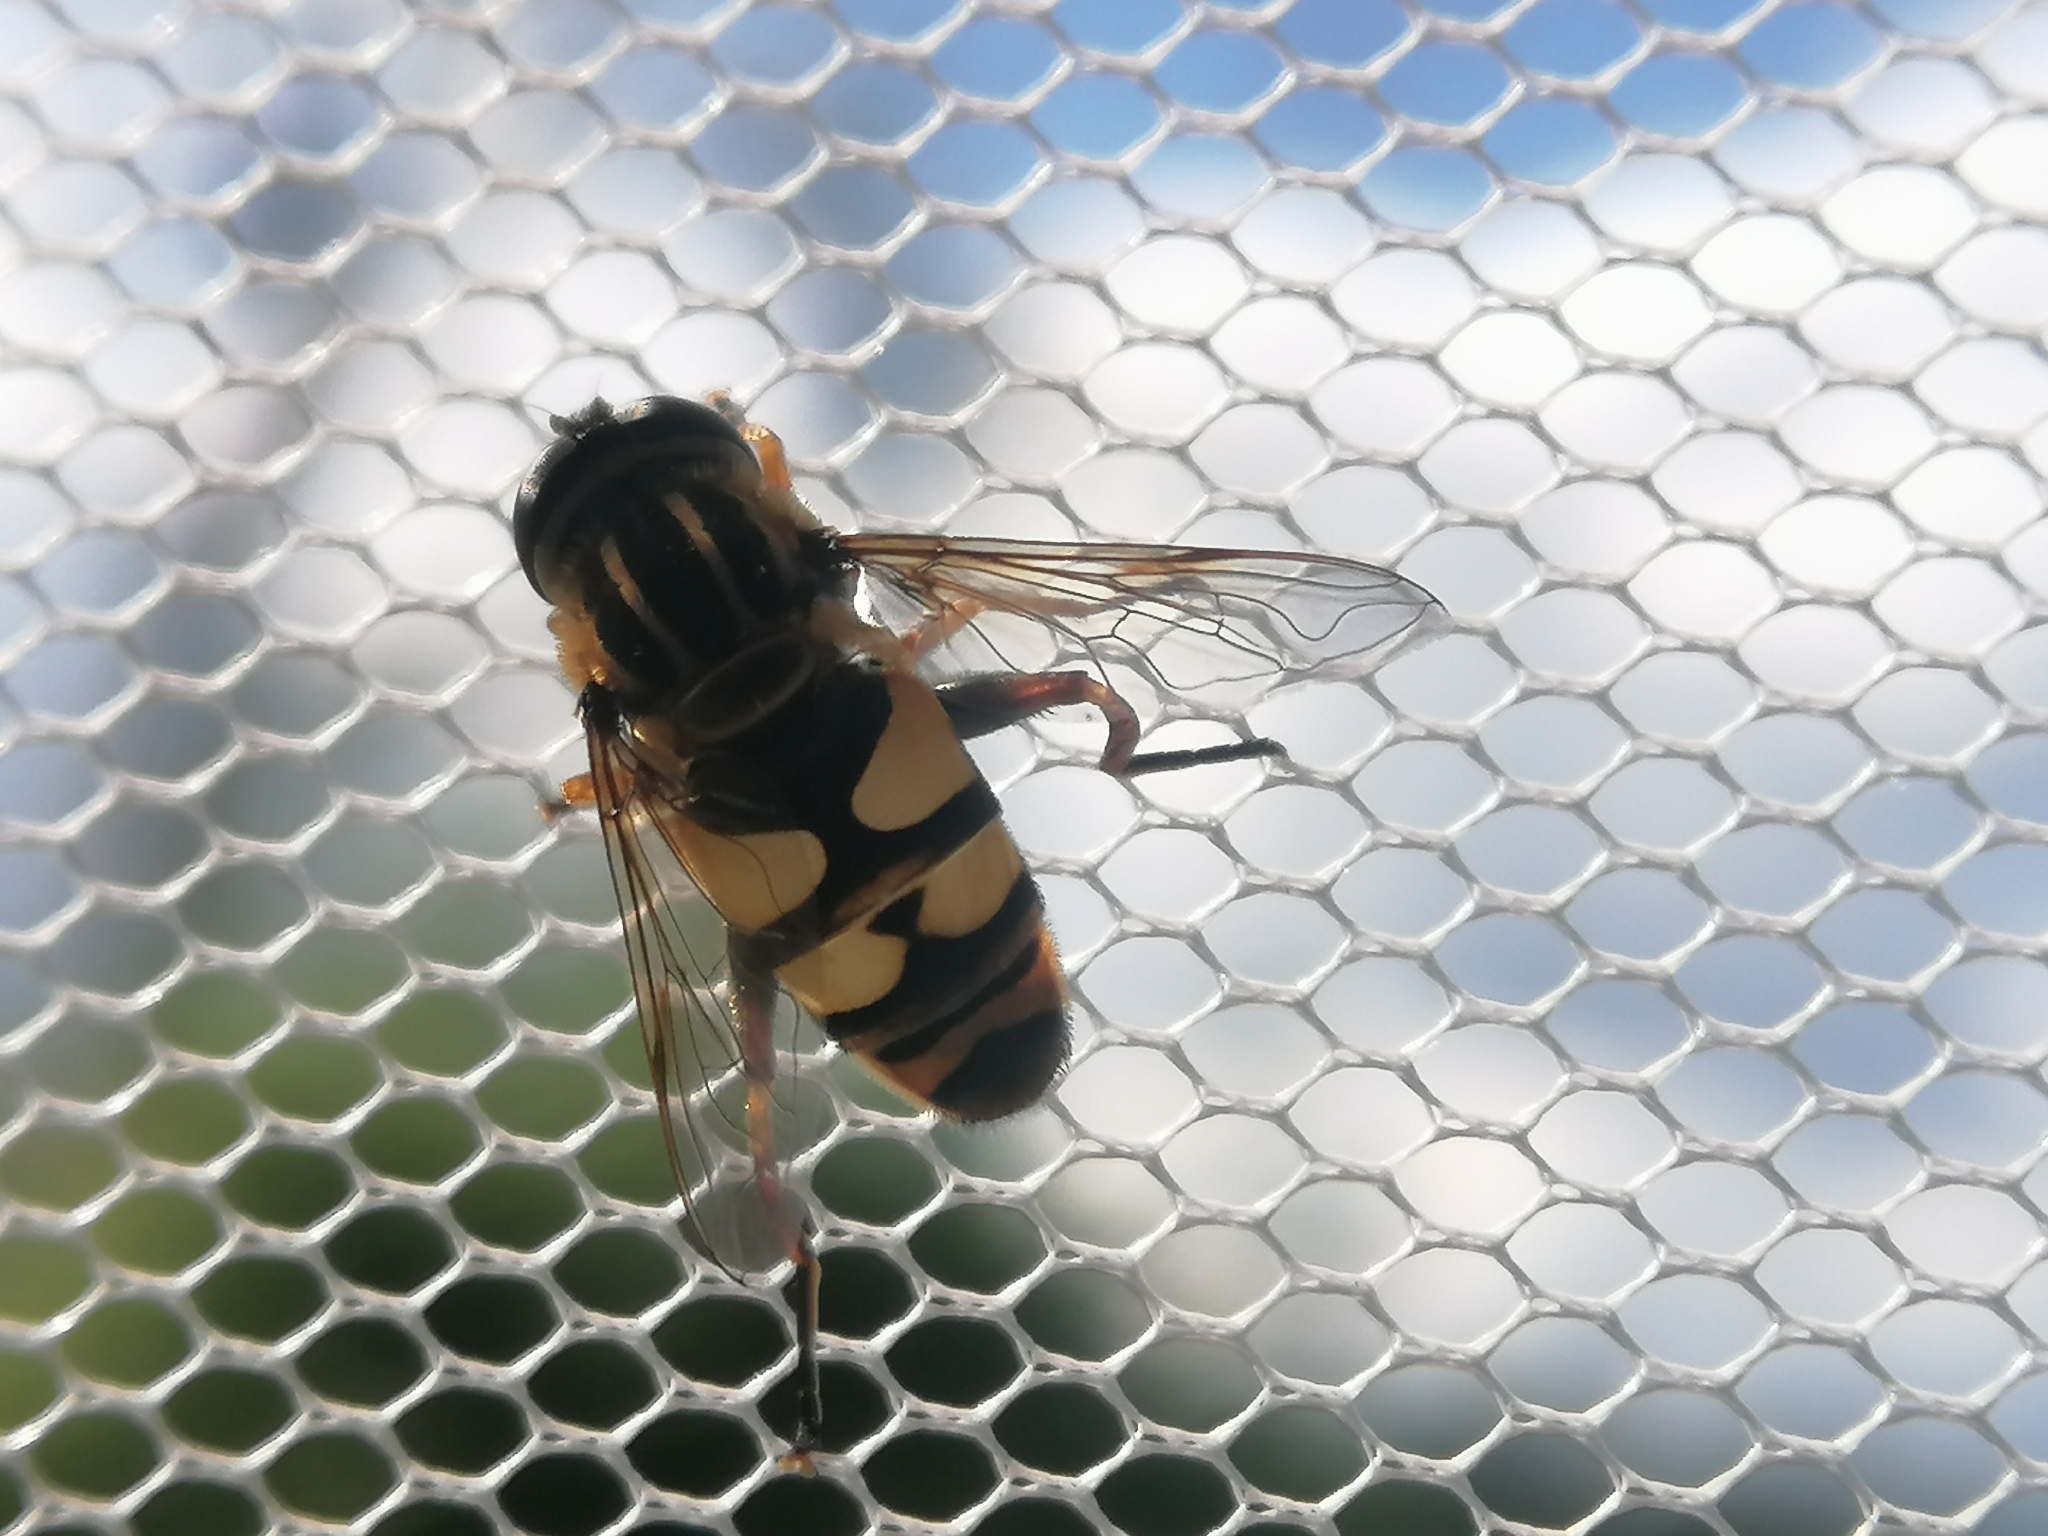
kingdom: Animalia
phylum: Arthropoda
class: Insecta
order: Diptera
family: Syrphidae
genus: Helophilus
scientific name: Helophilus fasciatus
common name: Narrow-headed marsh fly
